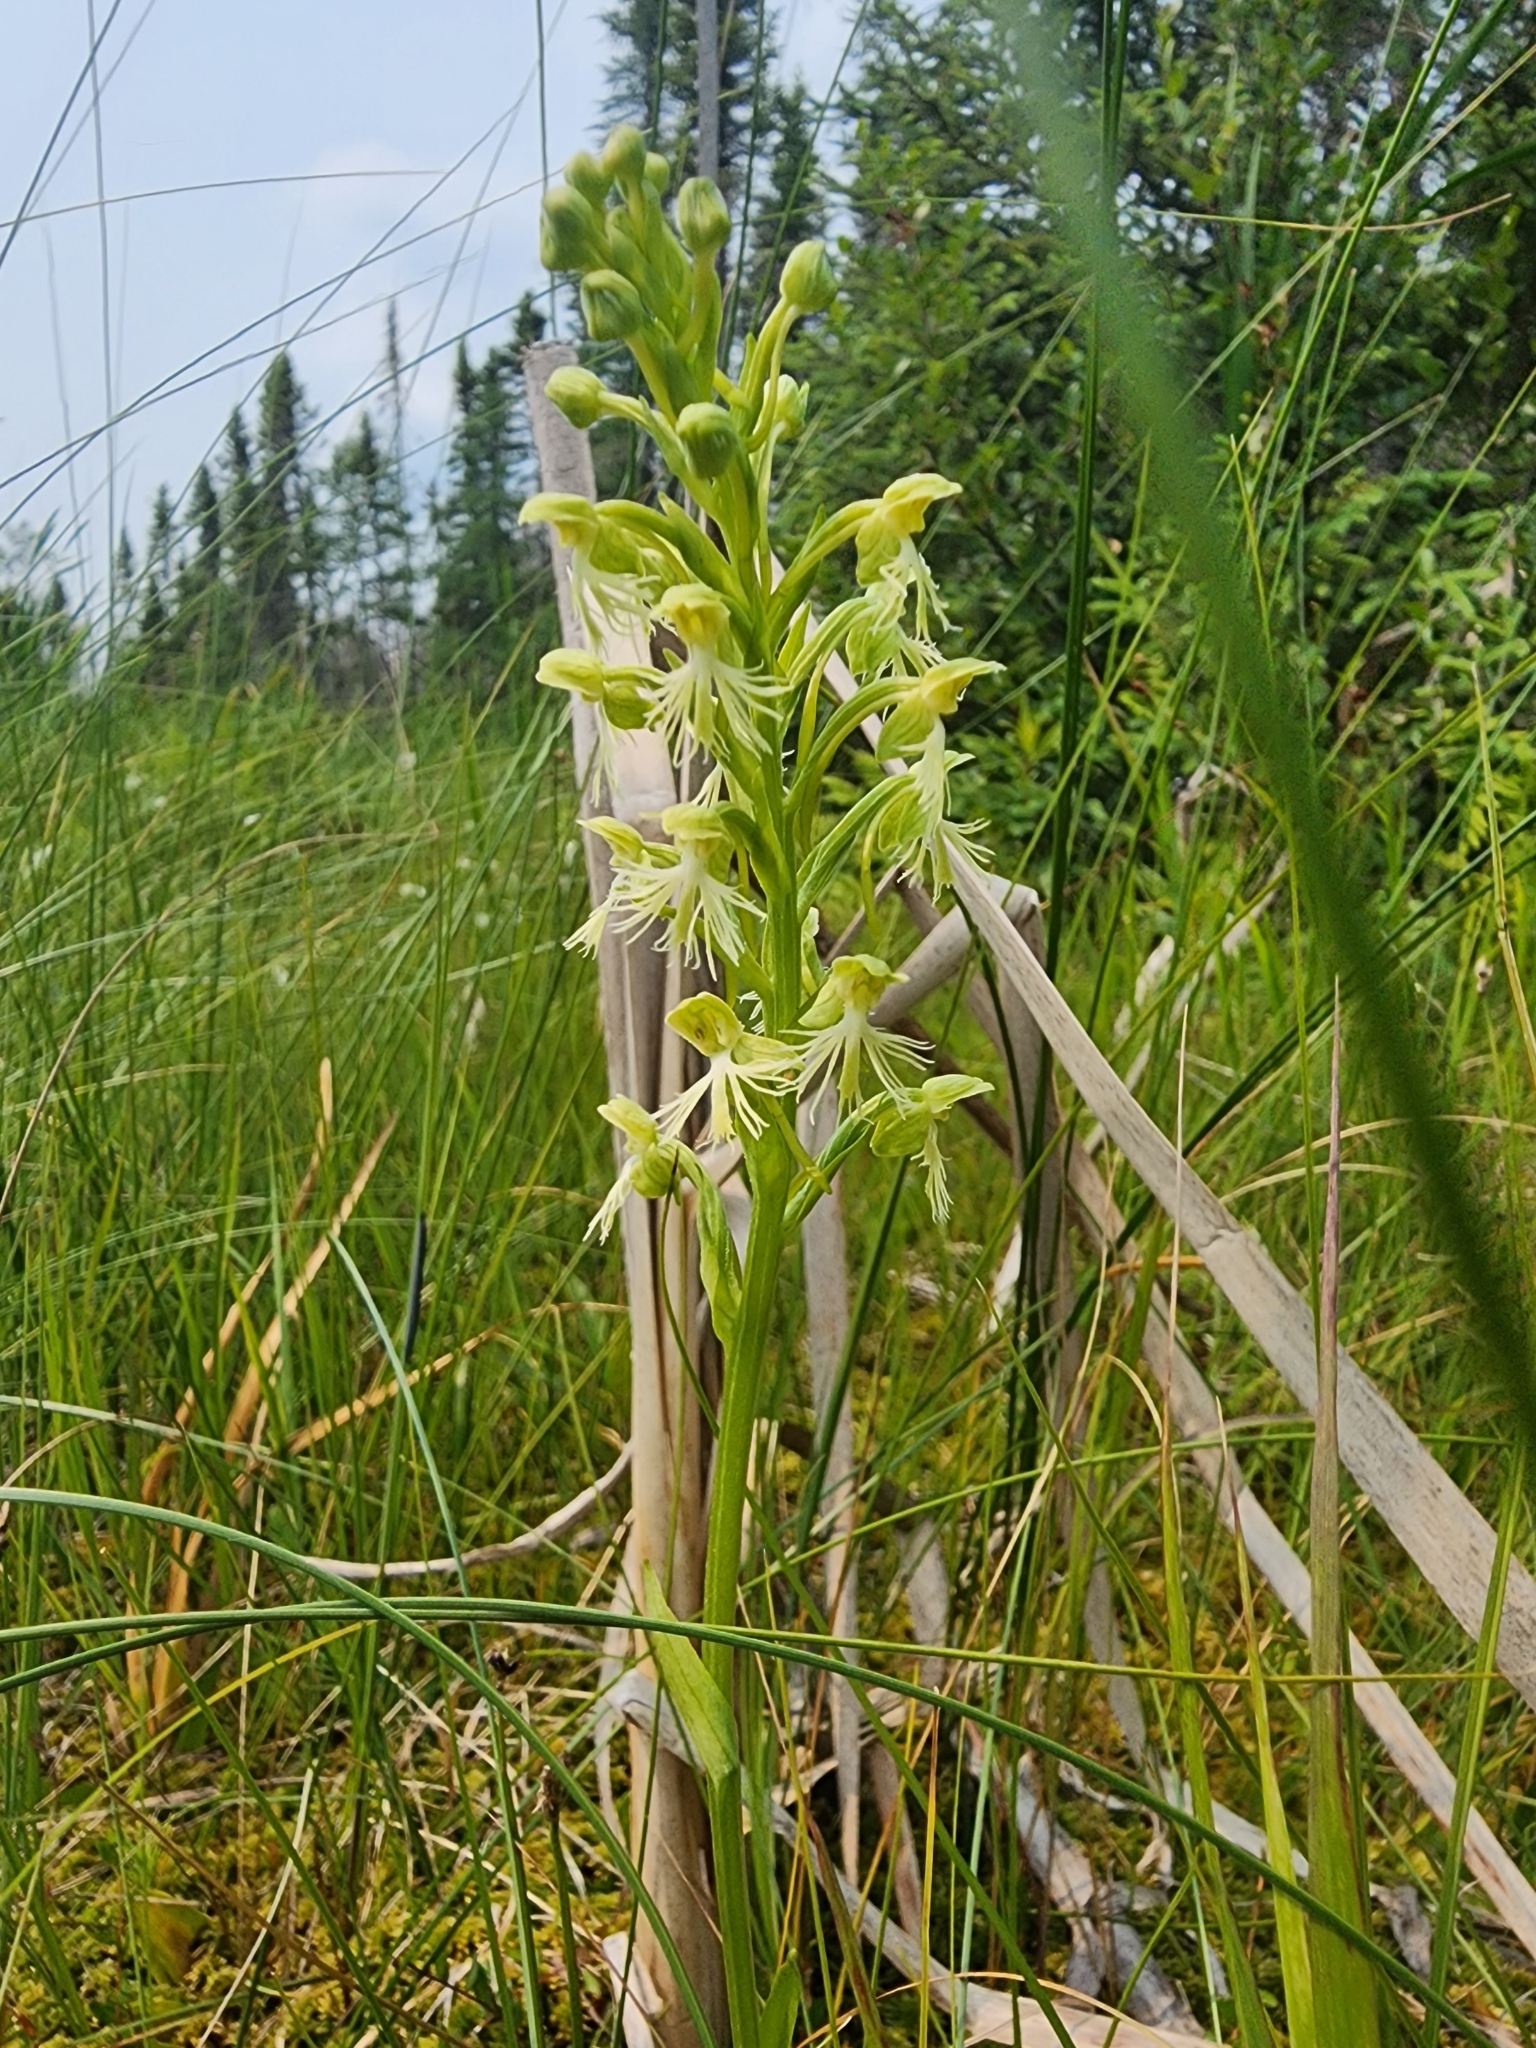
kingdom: Plantae
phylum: Tracheophyta
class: Liliopsida
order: Asparagales
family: Orchidaceae
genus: Platanthera
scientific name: Platanthera lacera
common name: Green fringed orchid
